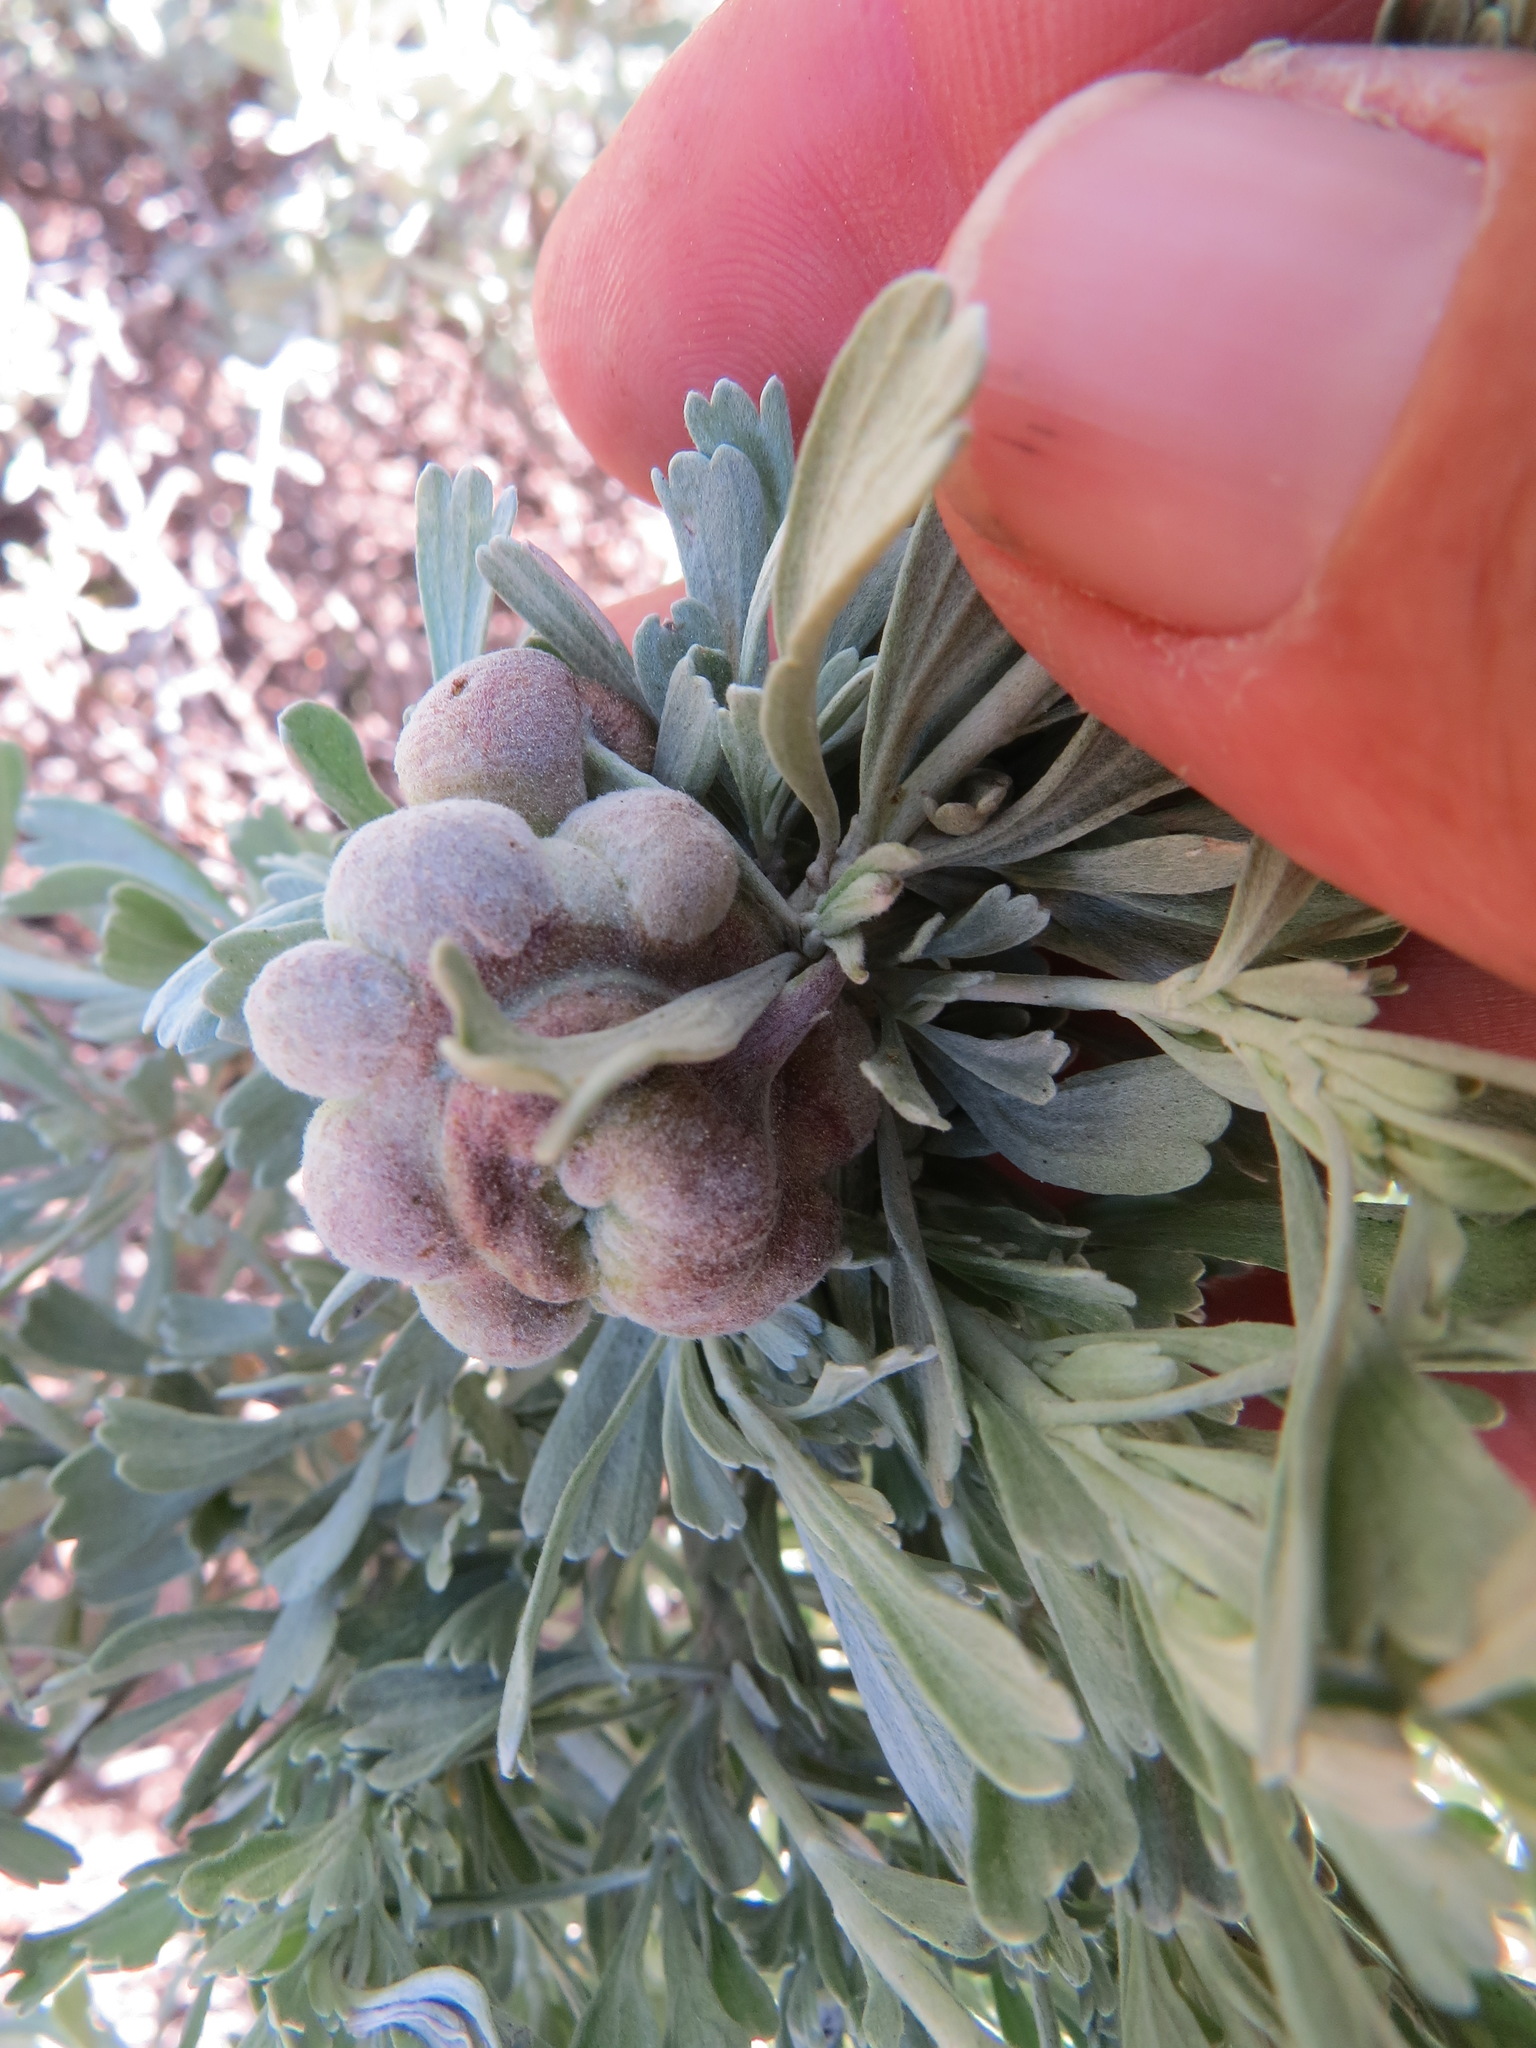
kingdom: Animalia
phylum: Arthropoda
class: Insecta
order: Diptera
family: Cecidomyiidae
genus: Rhopalomyia
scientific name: Rhopalomyia pomum
